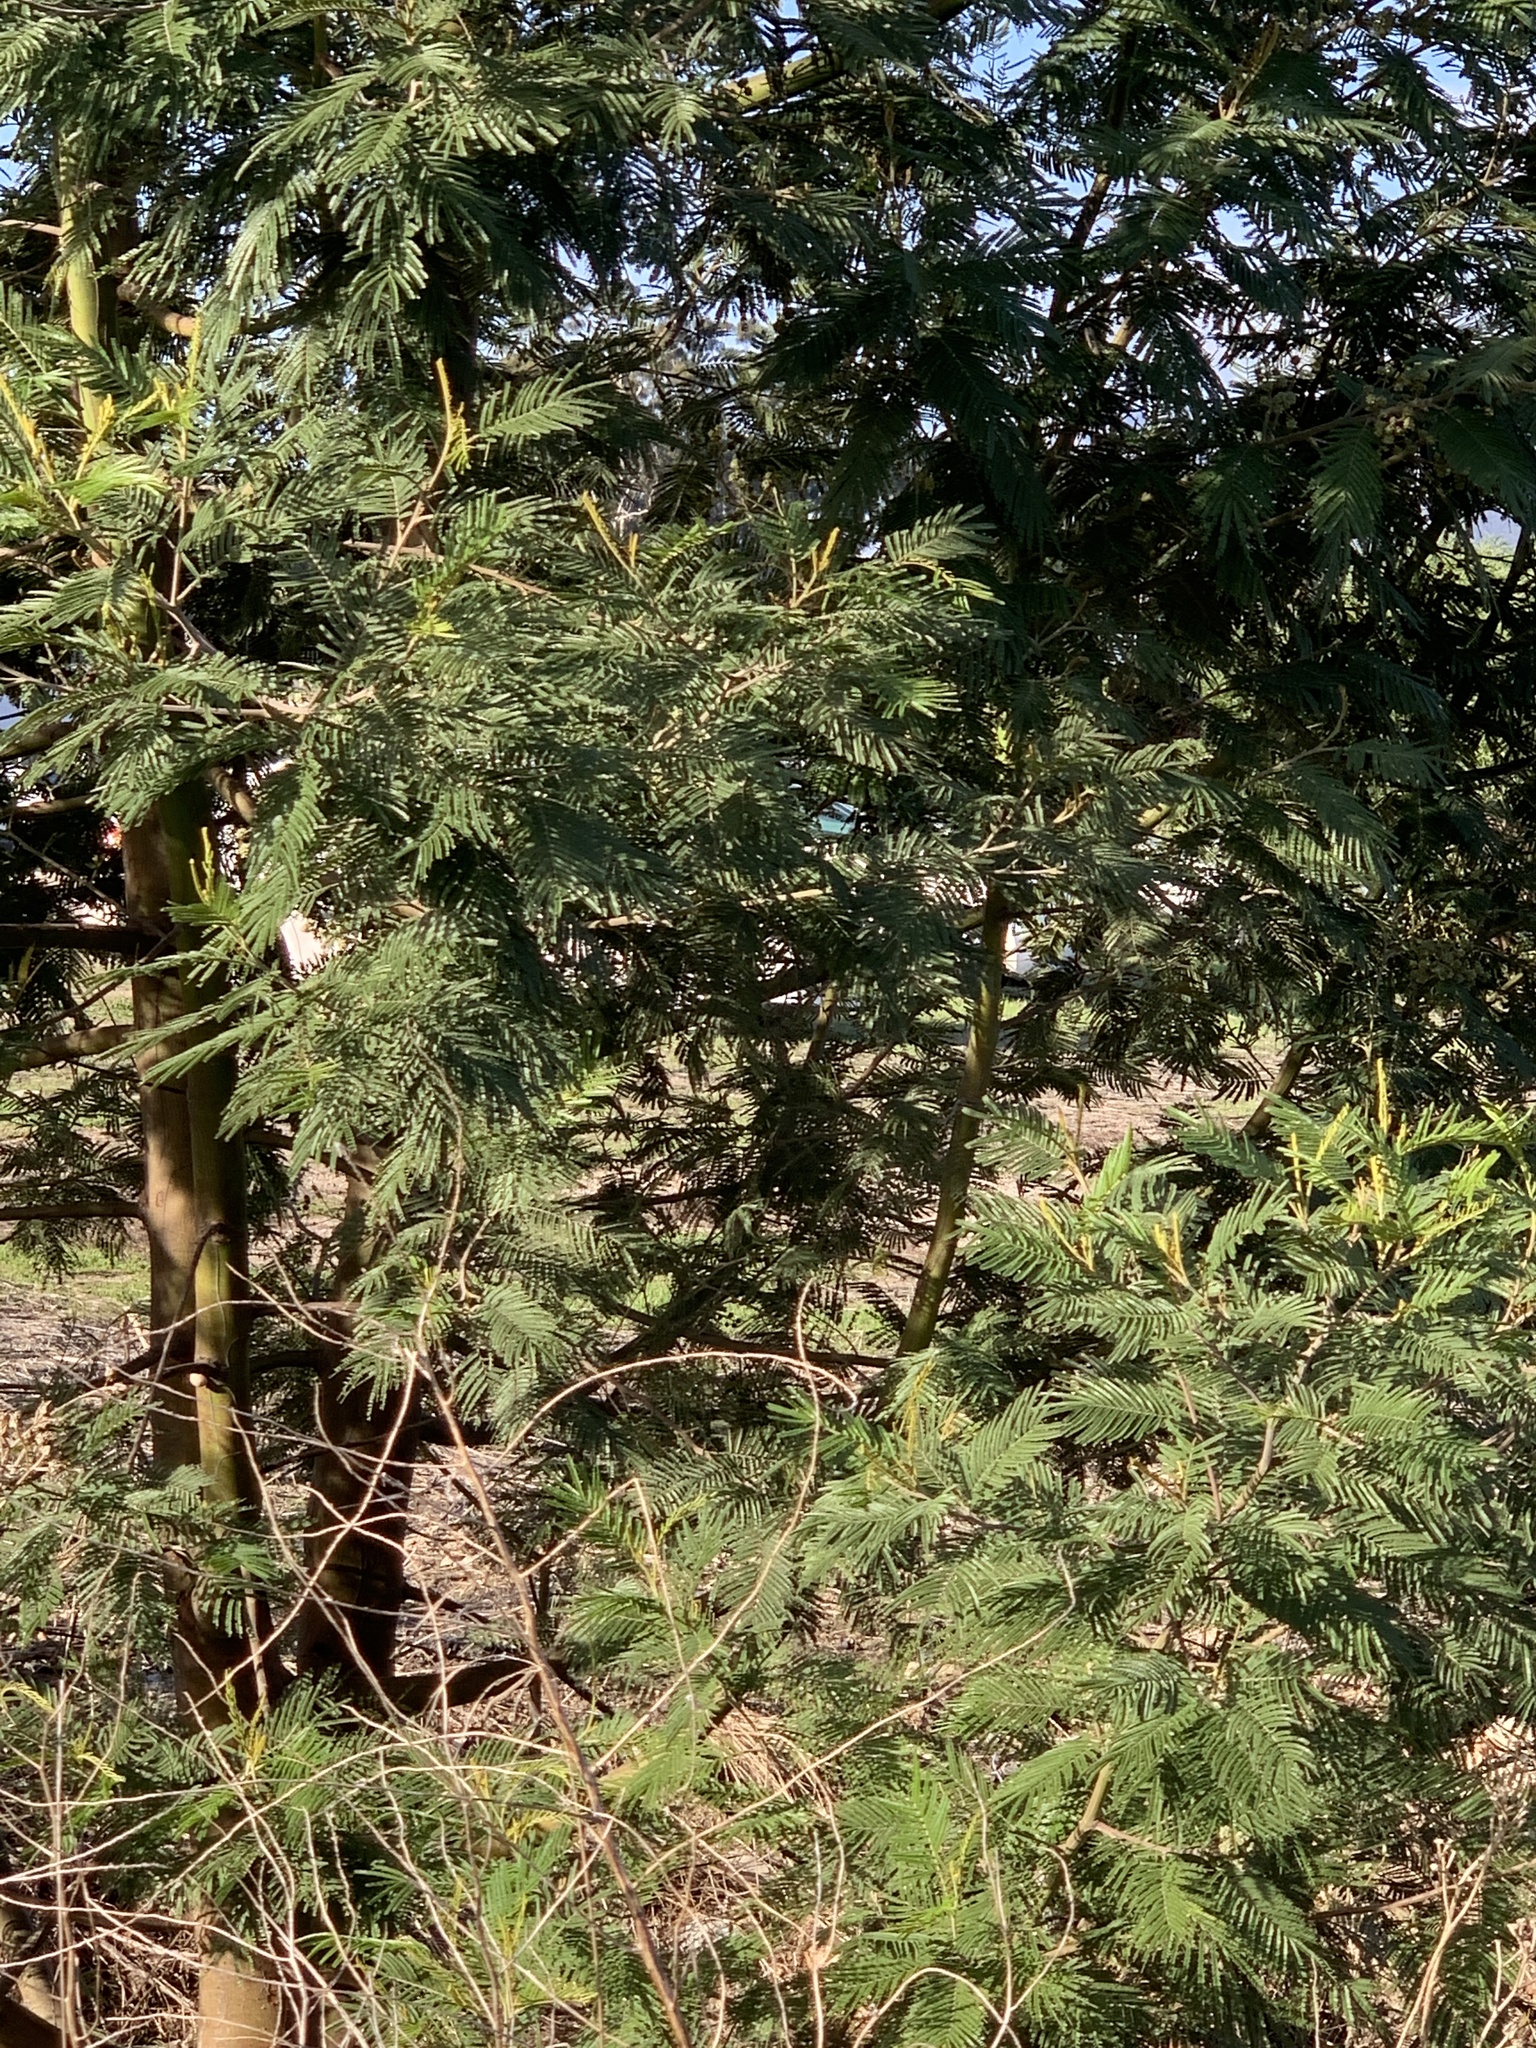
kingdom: Plantae
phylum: Tracheophyta
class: Magnoliopsida
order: Fabales
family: Fabaceae
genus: Acacia
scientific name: Acacia mearnsii
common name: Black wattle
